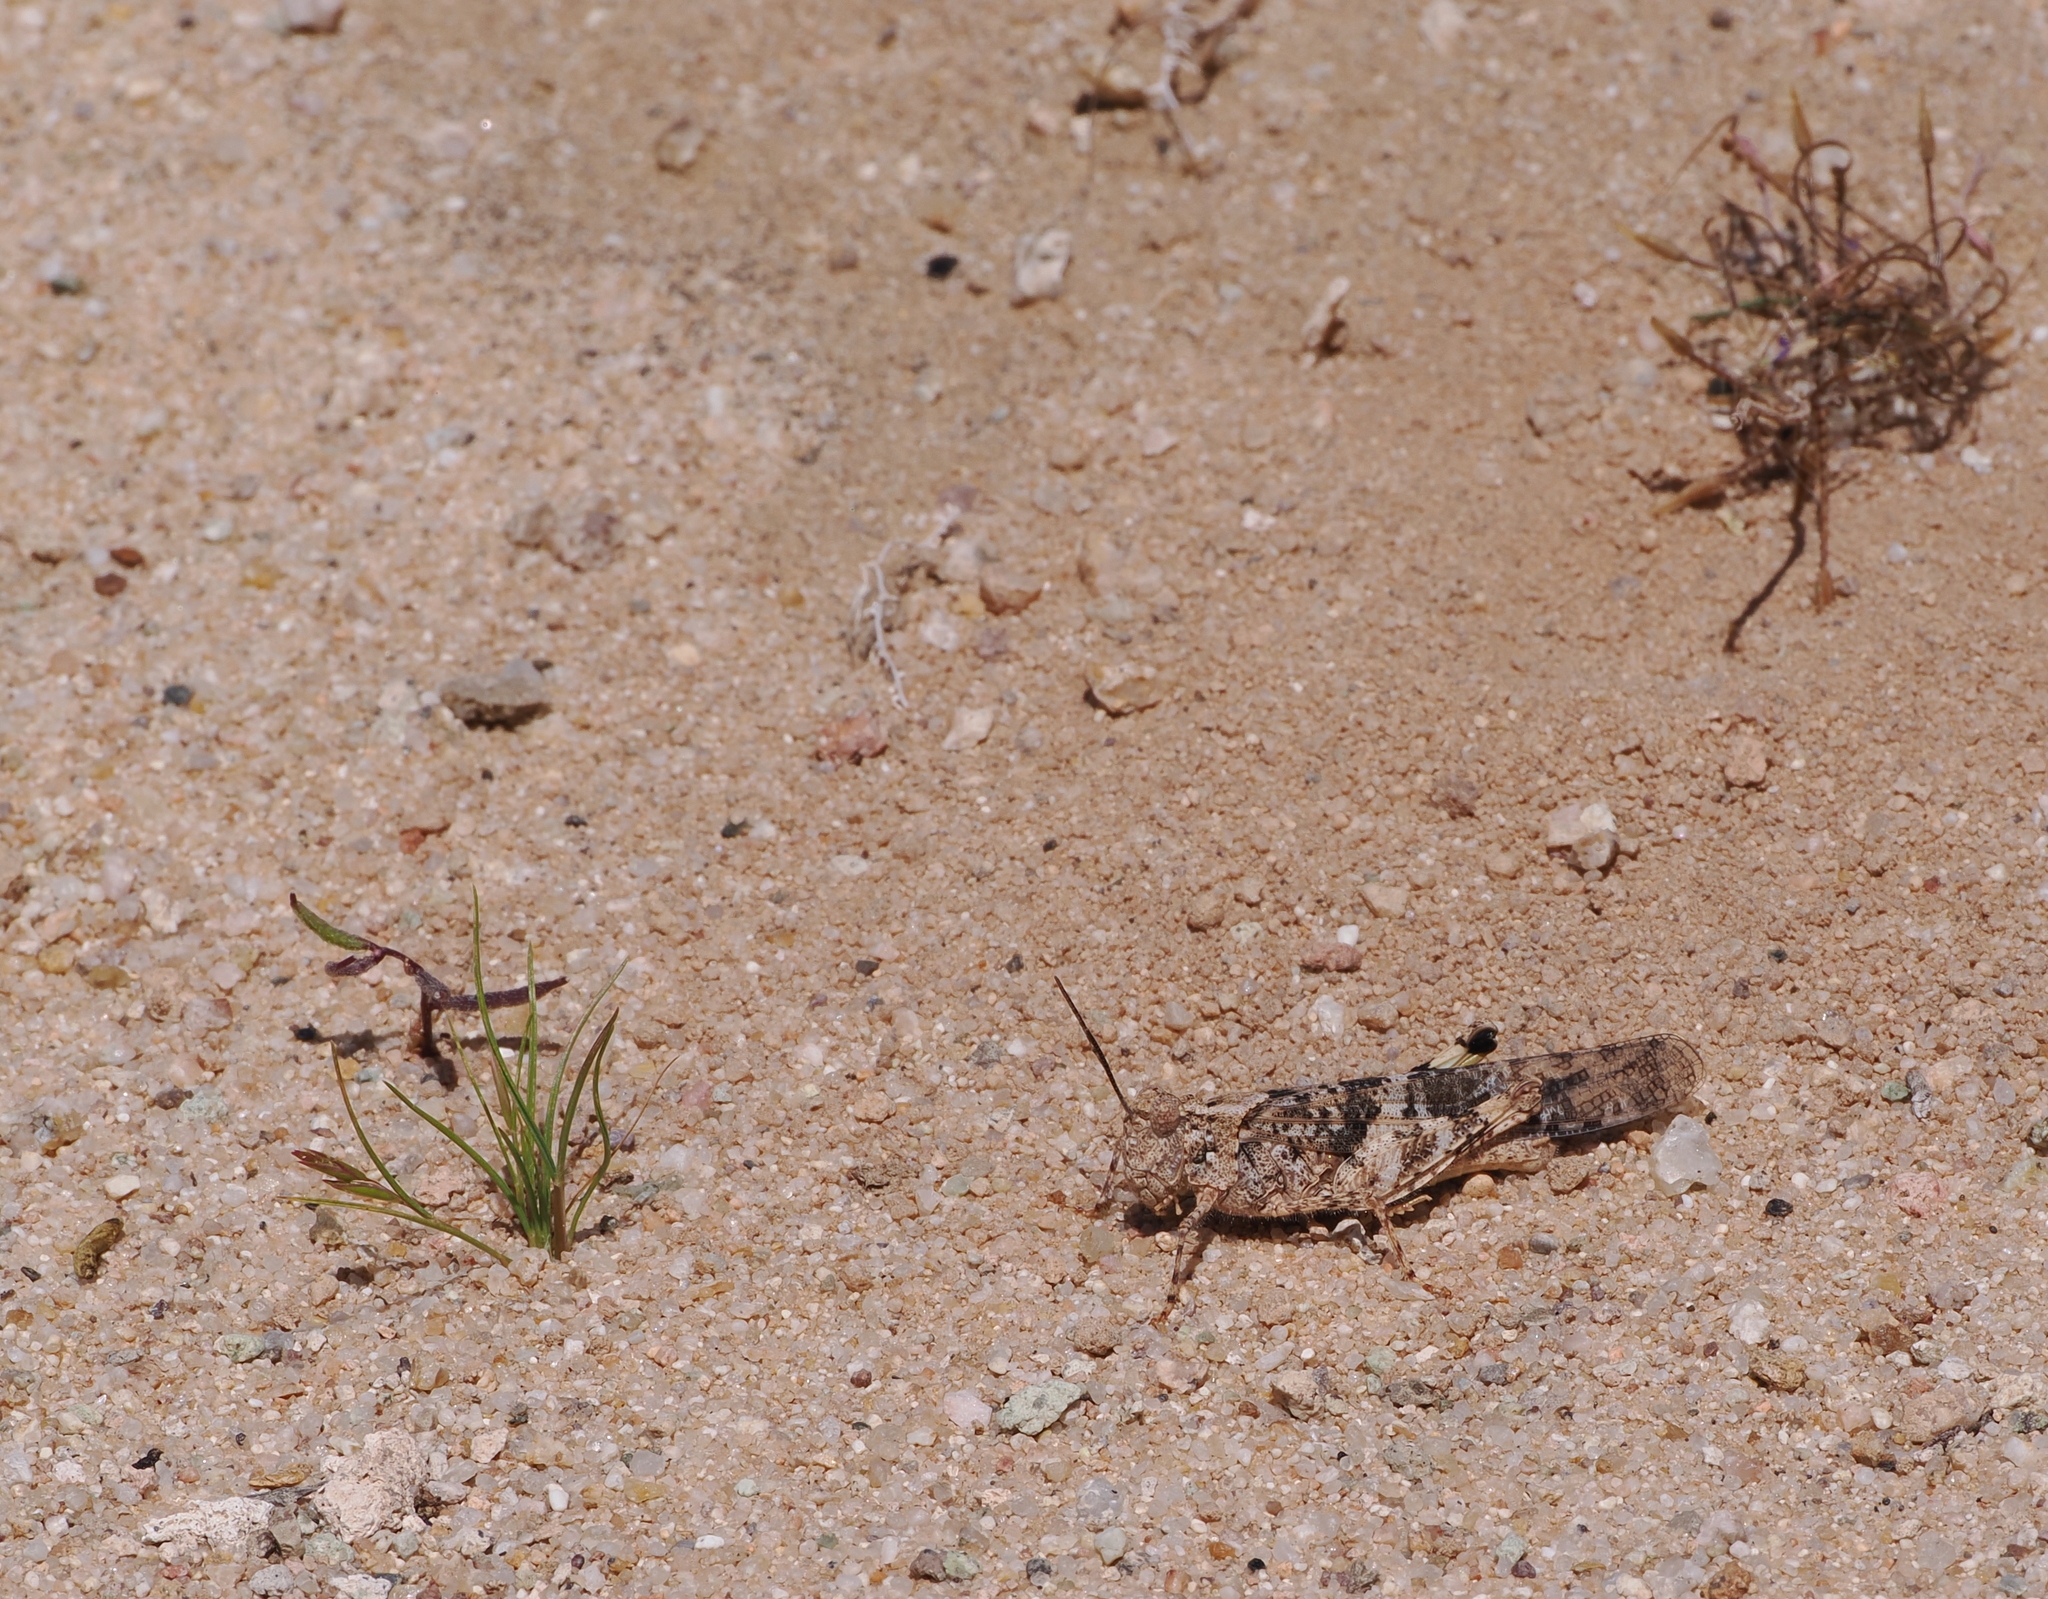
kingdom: Animalia
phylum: Arthropoda
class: Insecta
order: Orthoptera
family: Acrididae
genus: Trimerotropis
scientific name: Trimerotropis pallidipennis
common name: Pallid-winged grasshopper
